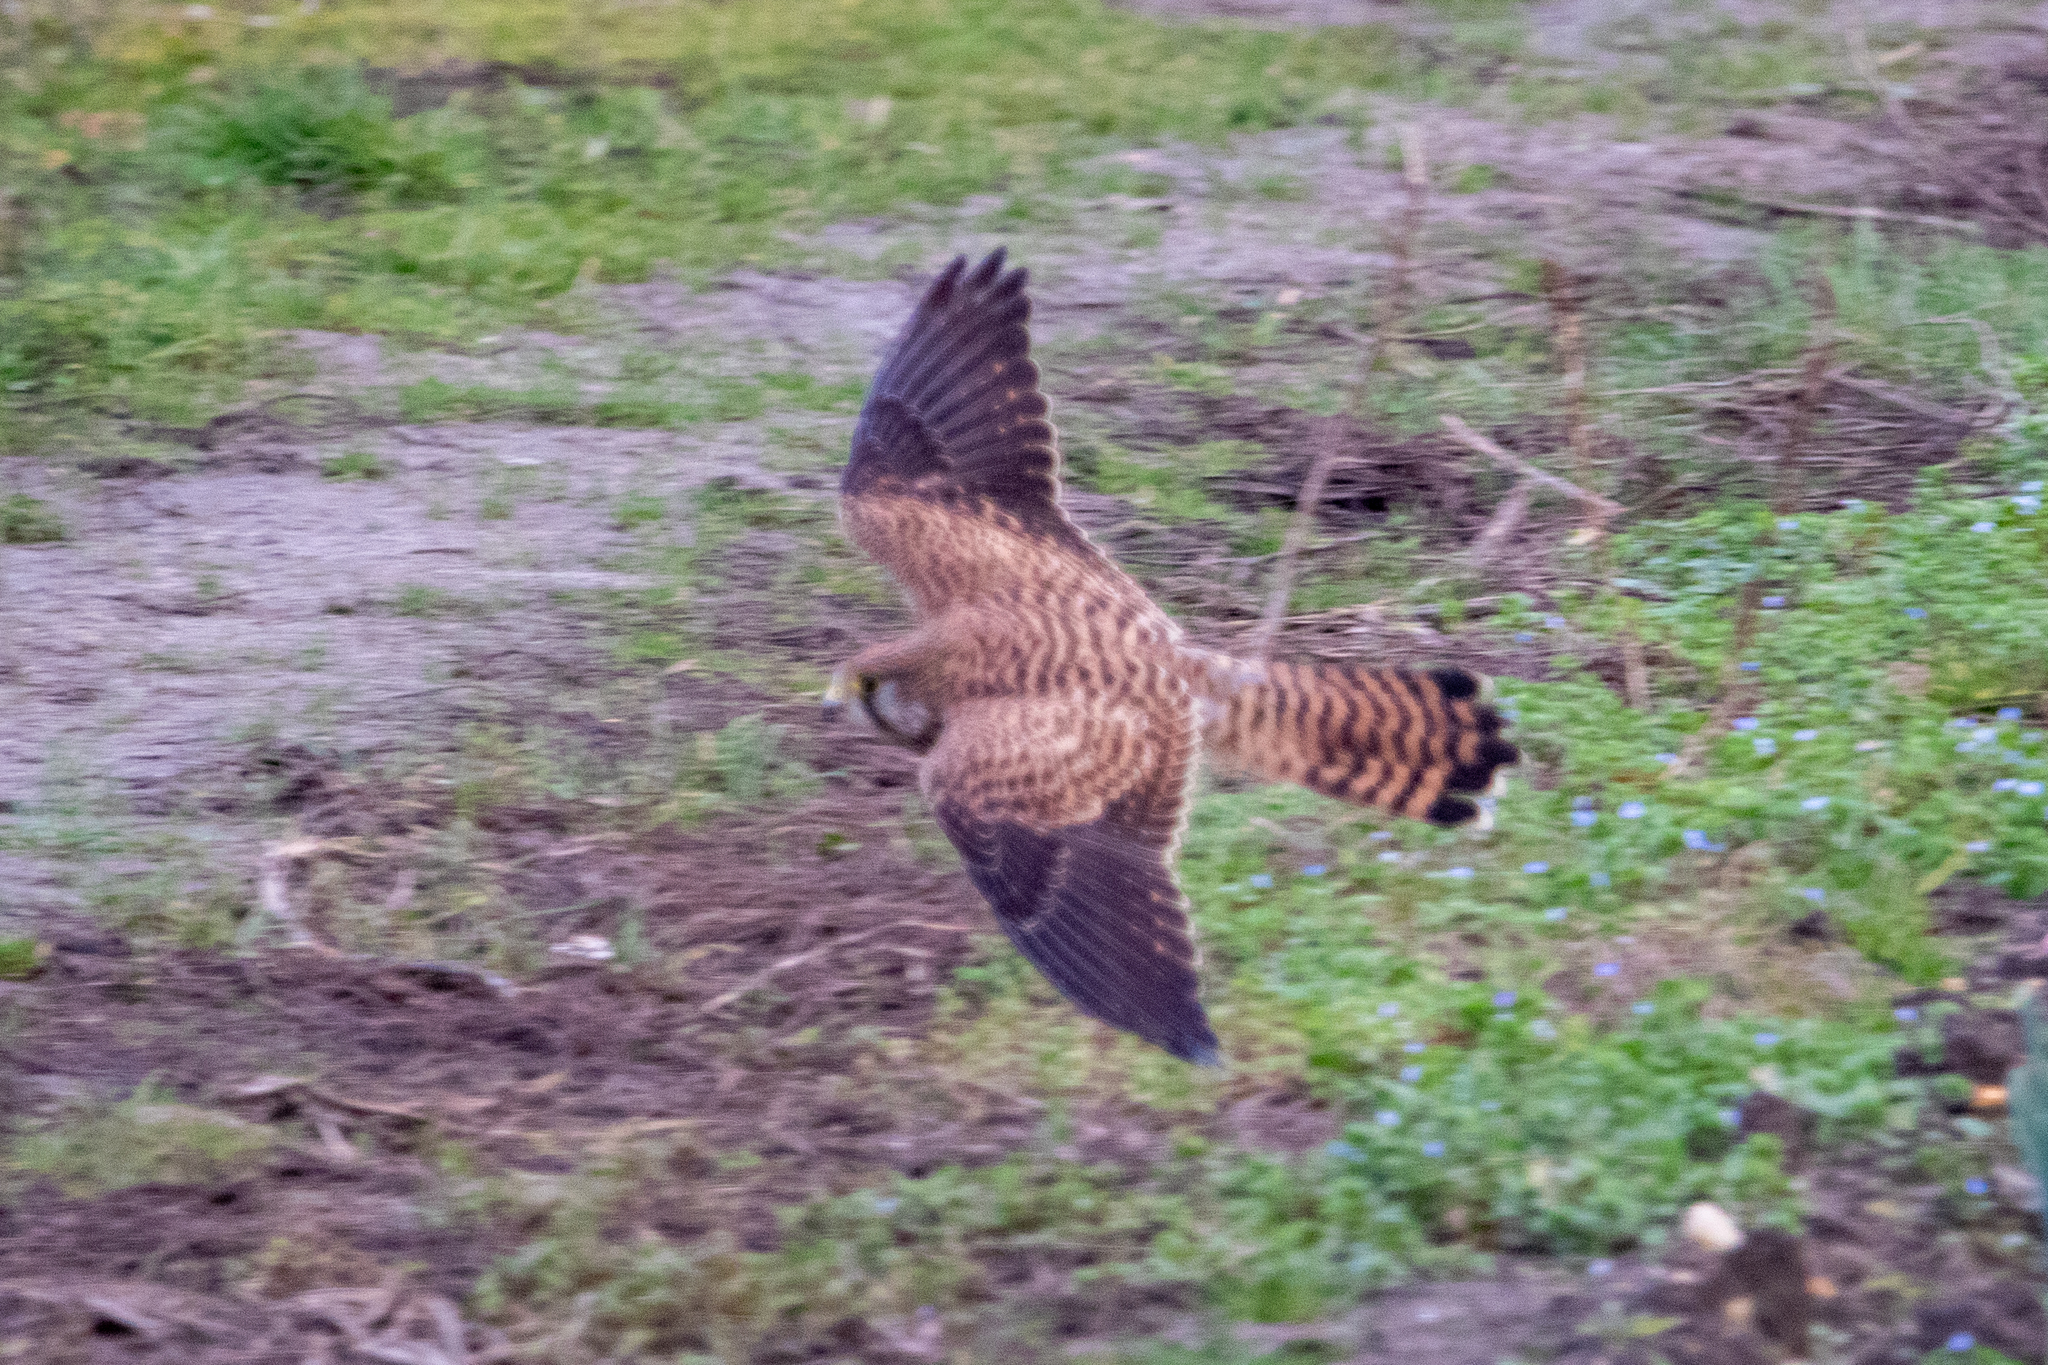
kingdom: Animalia
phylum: Chordata
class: Aves
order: Falconiformes
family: Falconidae
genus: Falco
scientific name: Falco tinnunculus
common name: Common kestrel
